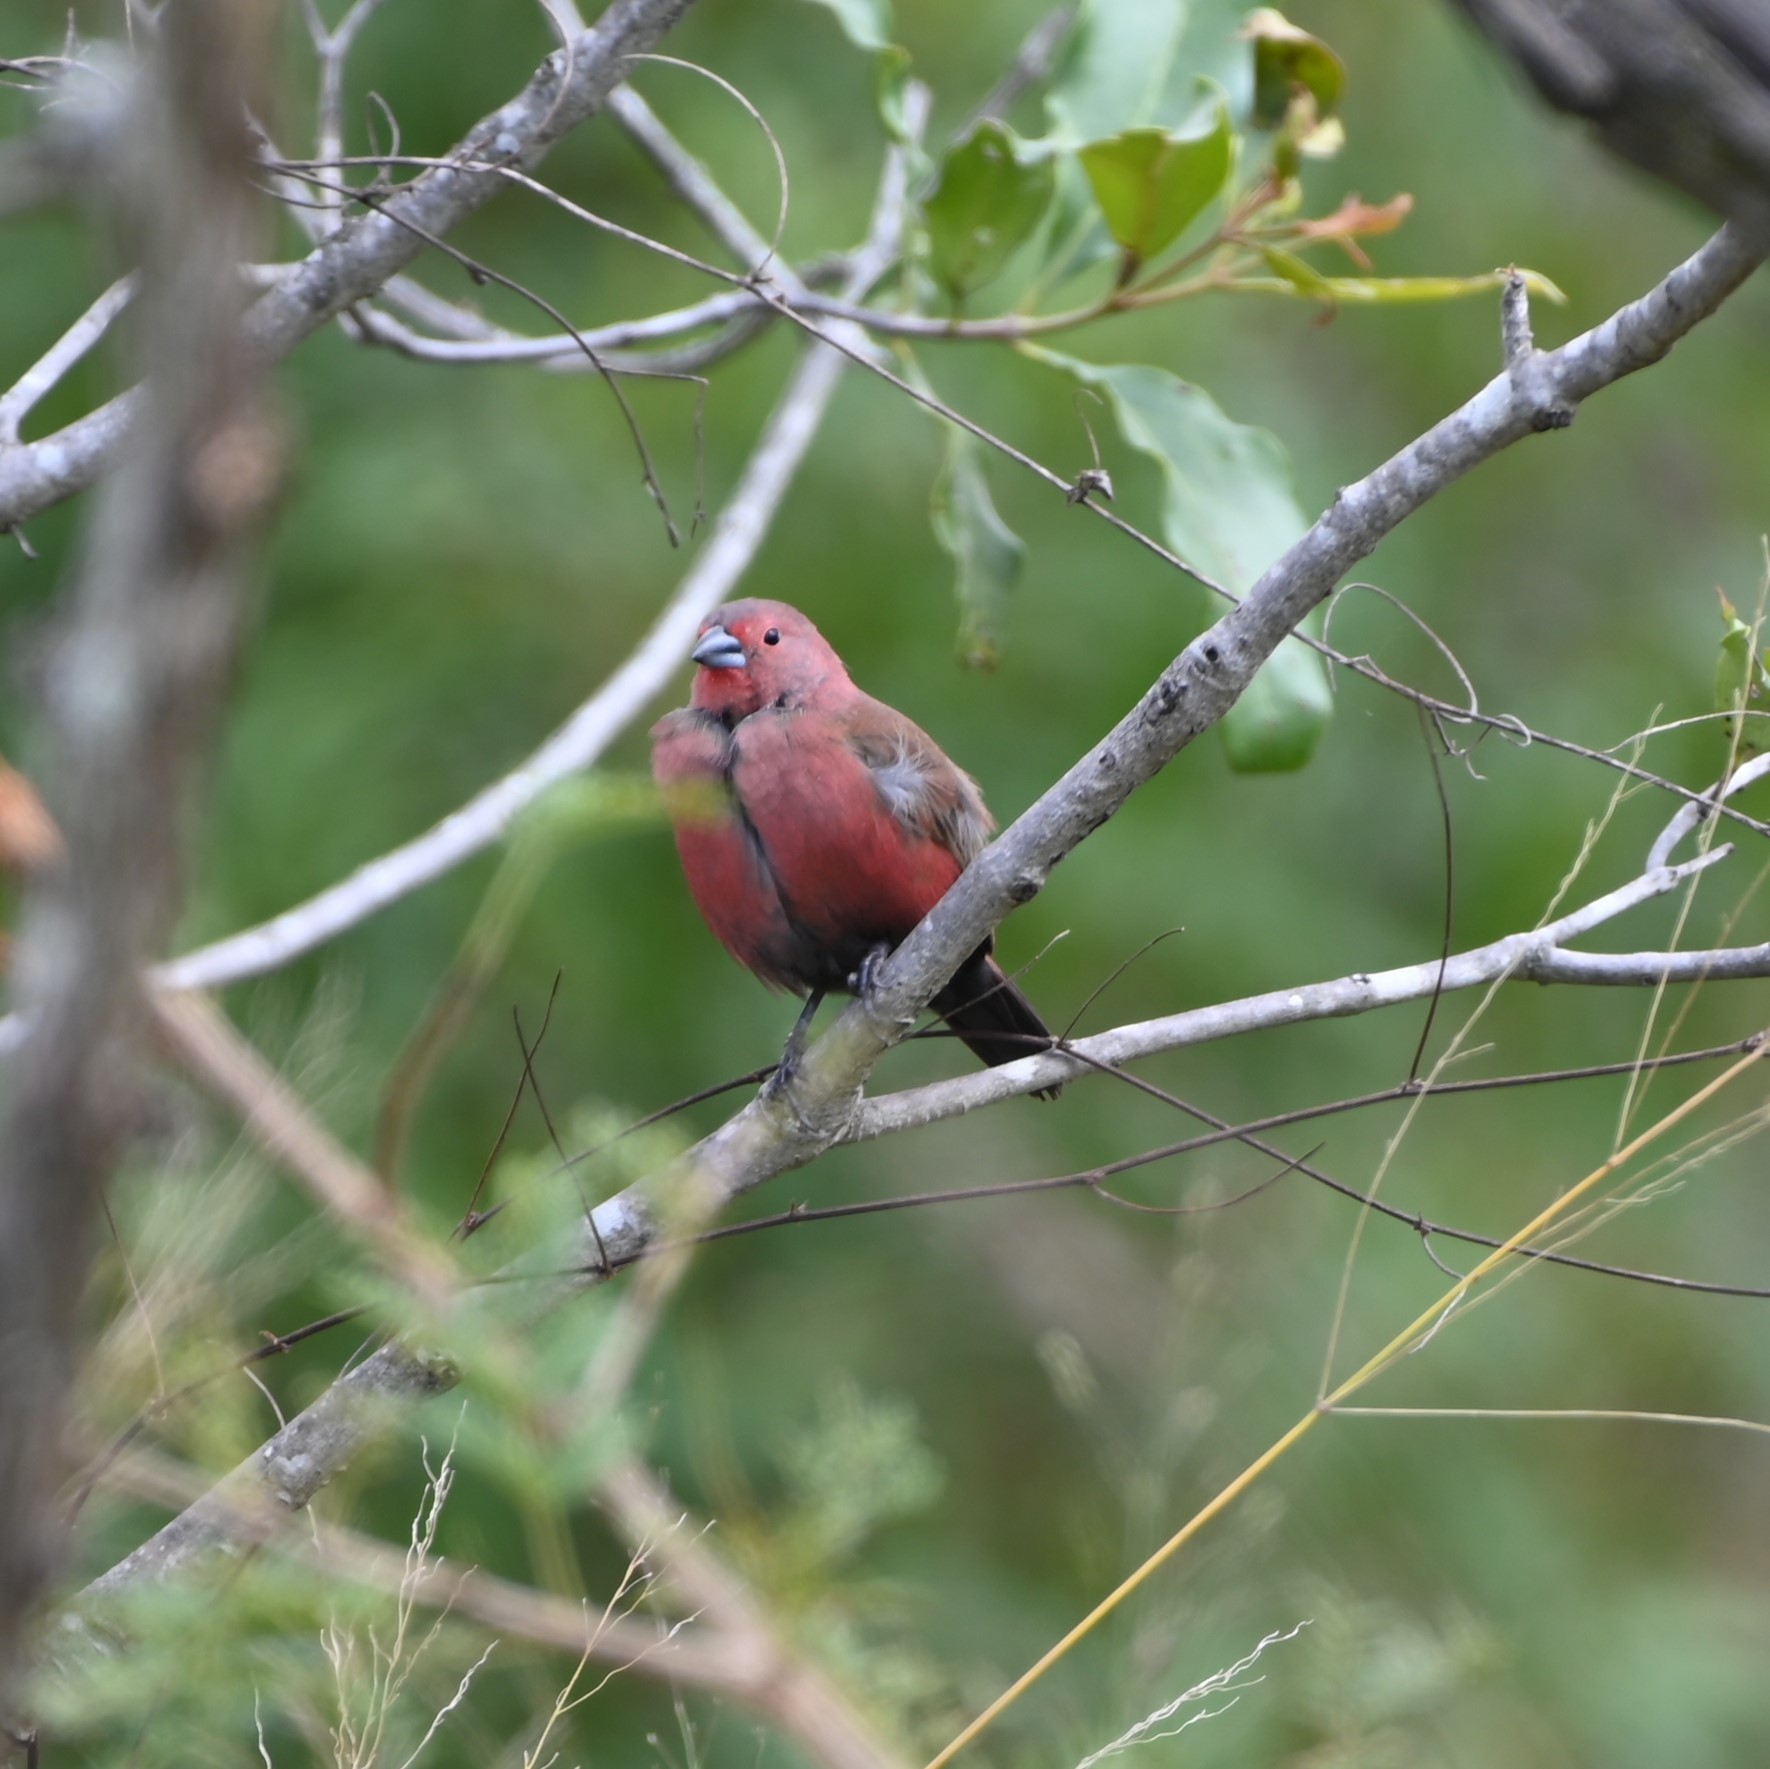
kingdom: Animalia
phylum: Chordata
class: Aves
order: Passeriformes
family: Estrildidae
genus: Lagonosticta
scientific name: Lagonosticta rhodopareia
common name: Jameson's firefinch
